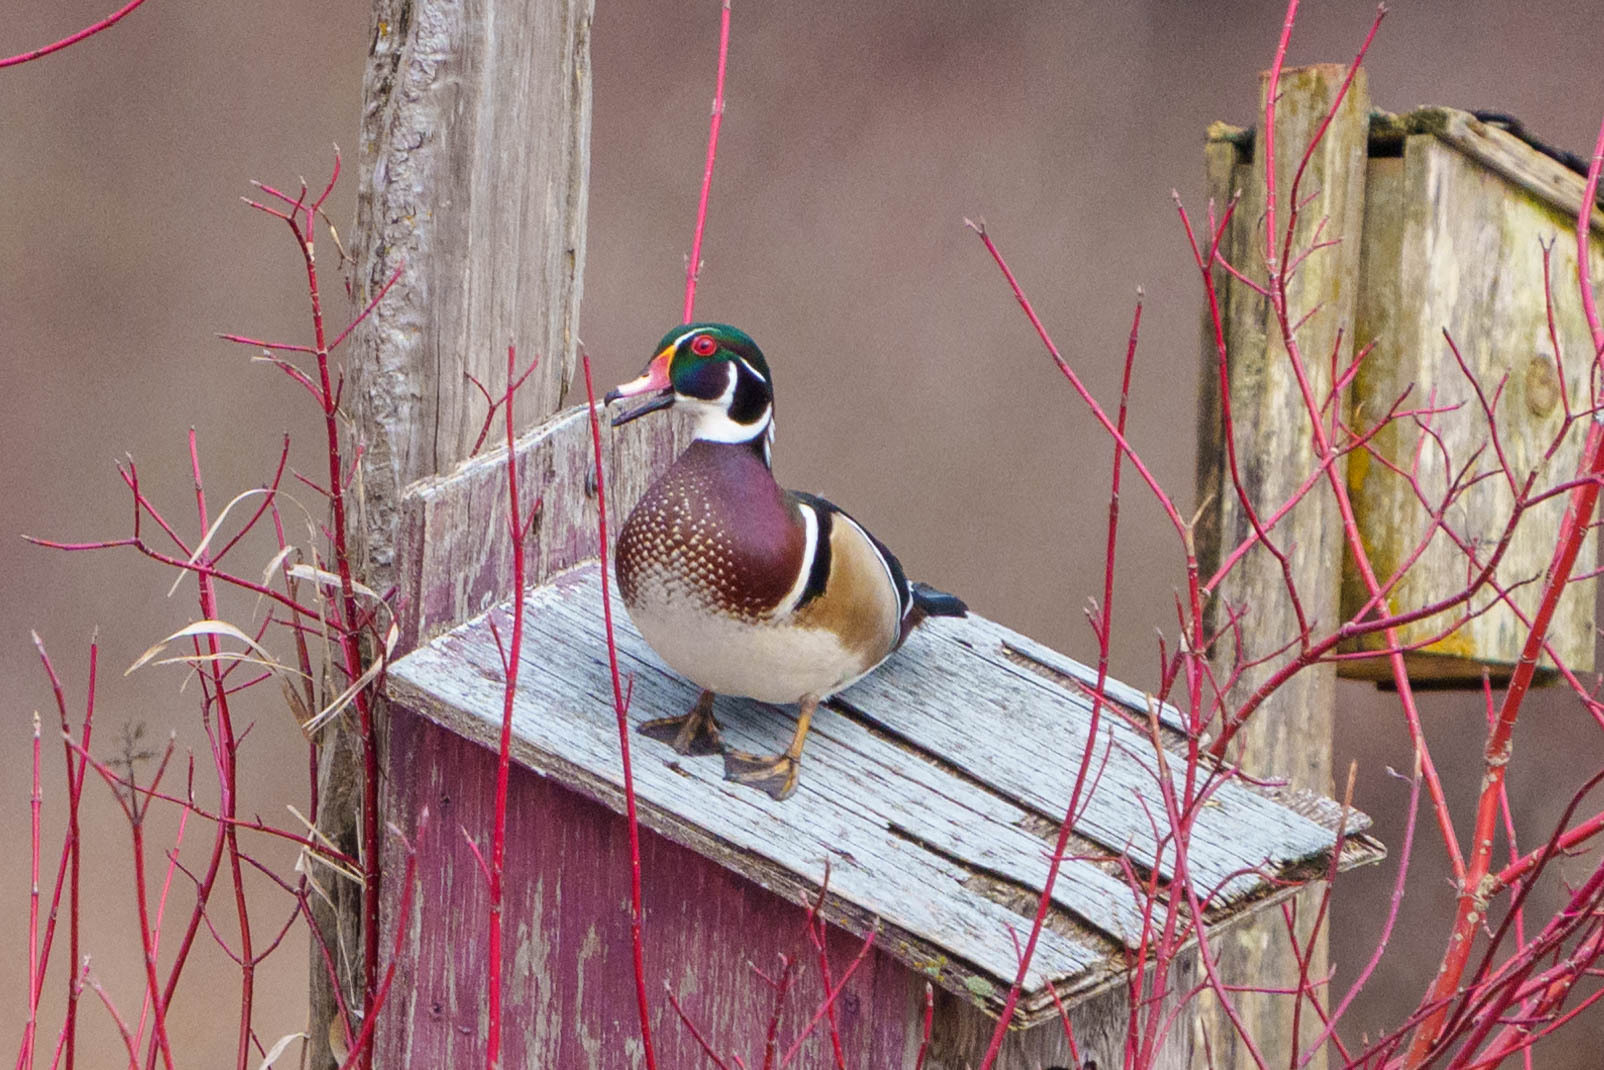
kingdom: Animalia
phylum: Chordata
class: Aves
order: Anseriformes
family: Anatidae
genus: Aix
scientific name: Aix sponsa
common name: Wood duck
